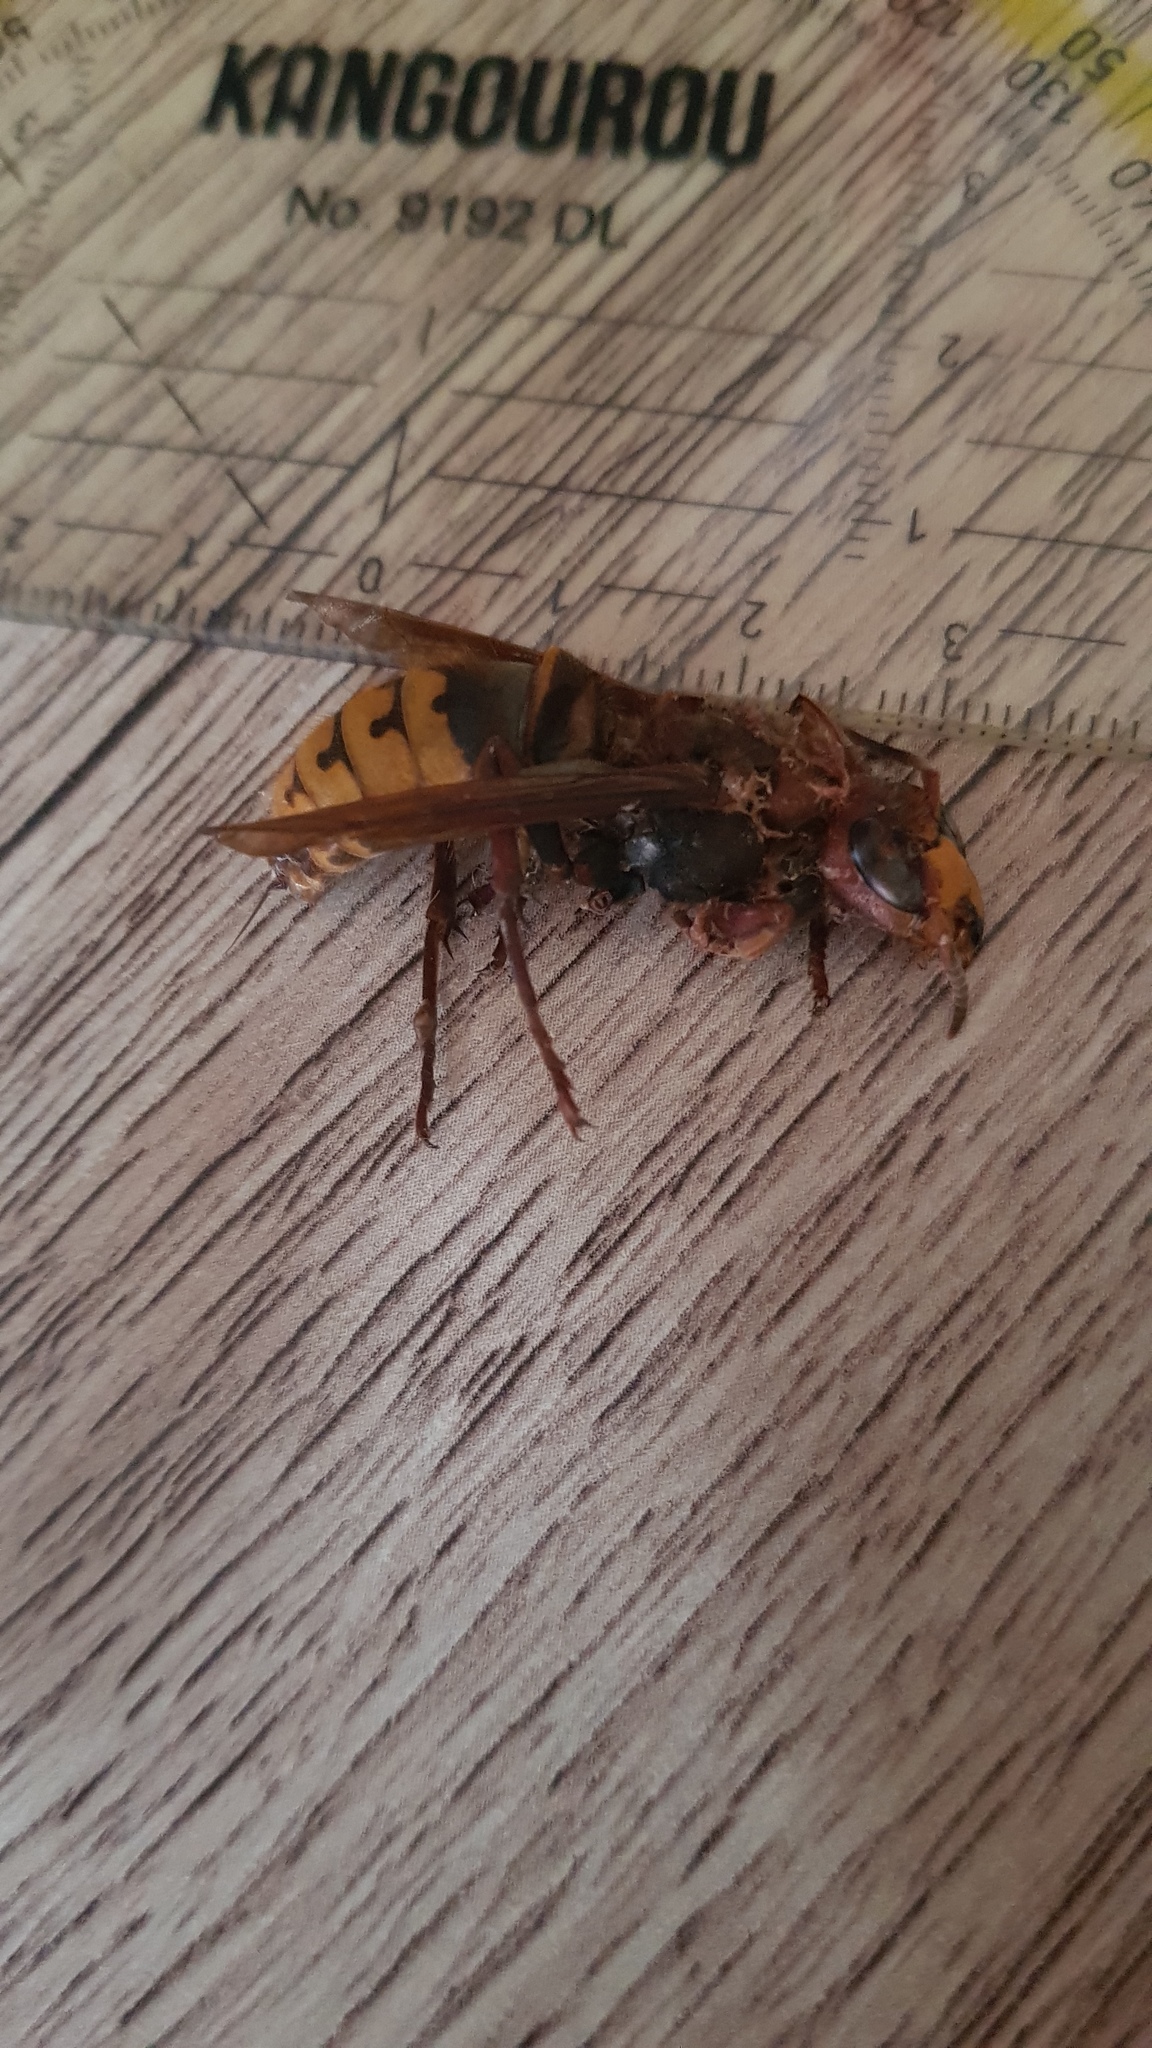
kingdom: Animalia
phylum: Arthropoda
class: Insecta
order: Hymenoptera
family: Vespidae
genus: Vespa
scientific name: Vespa crabro
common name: Hornet
